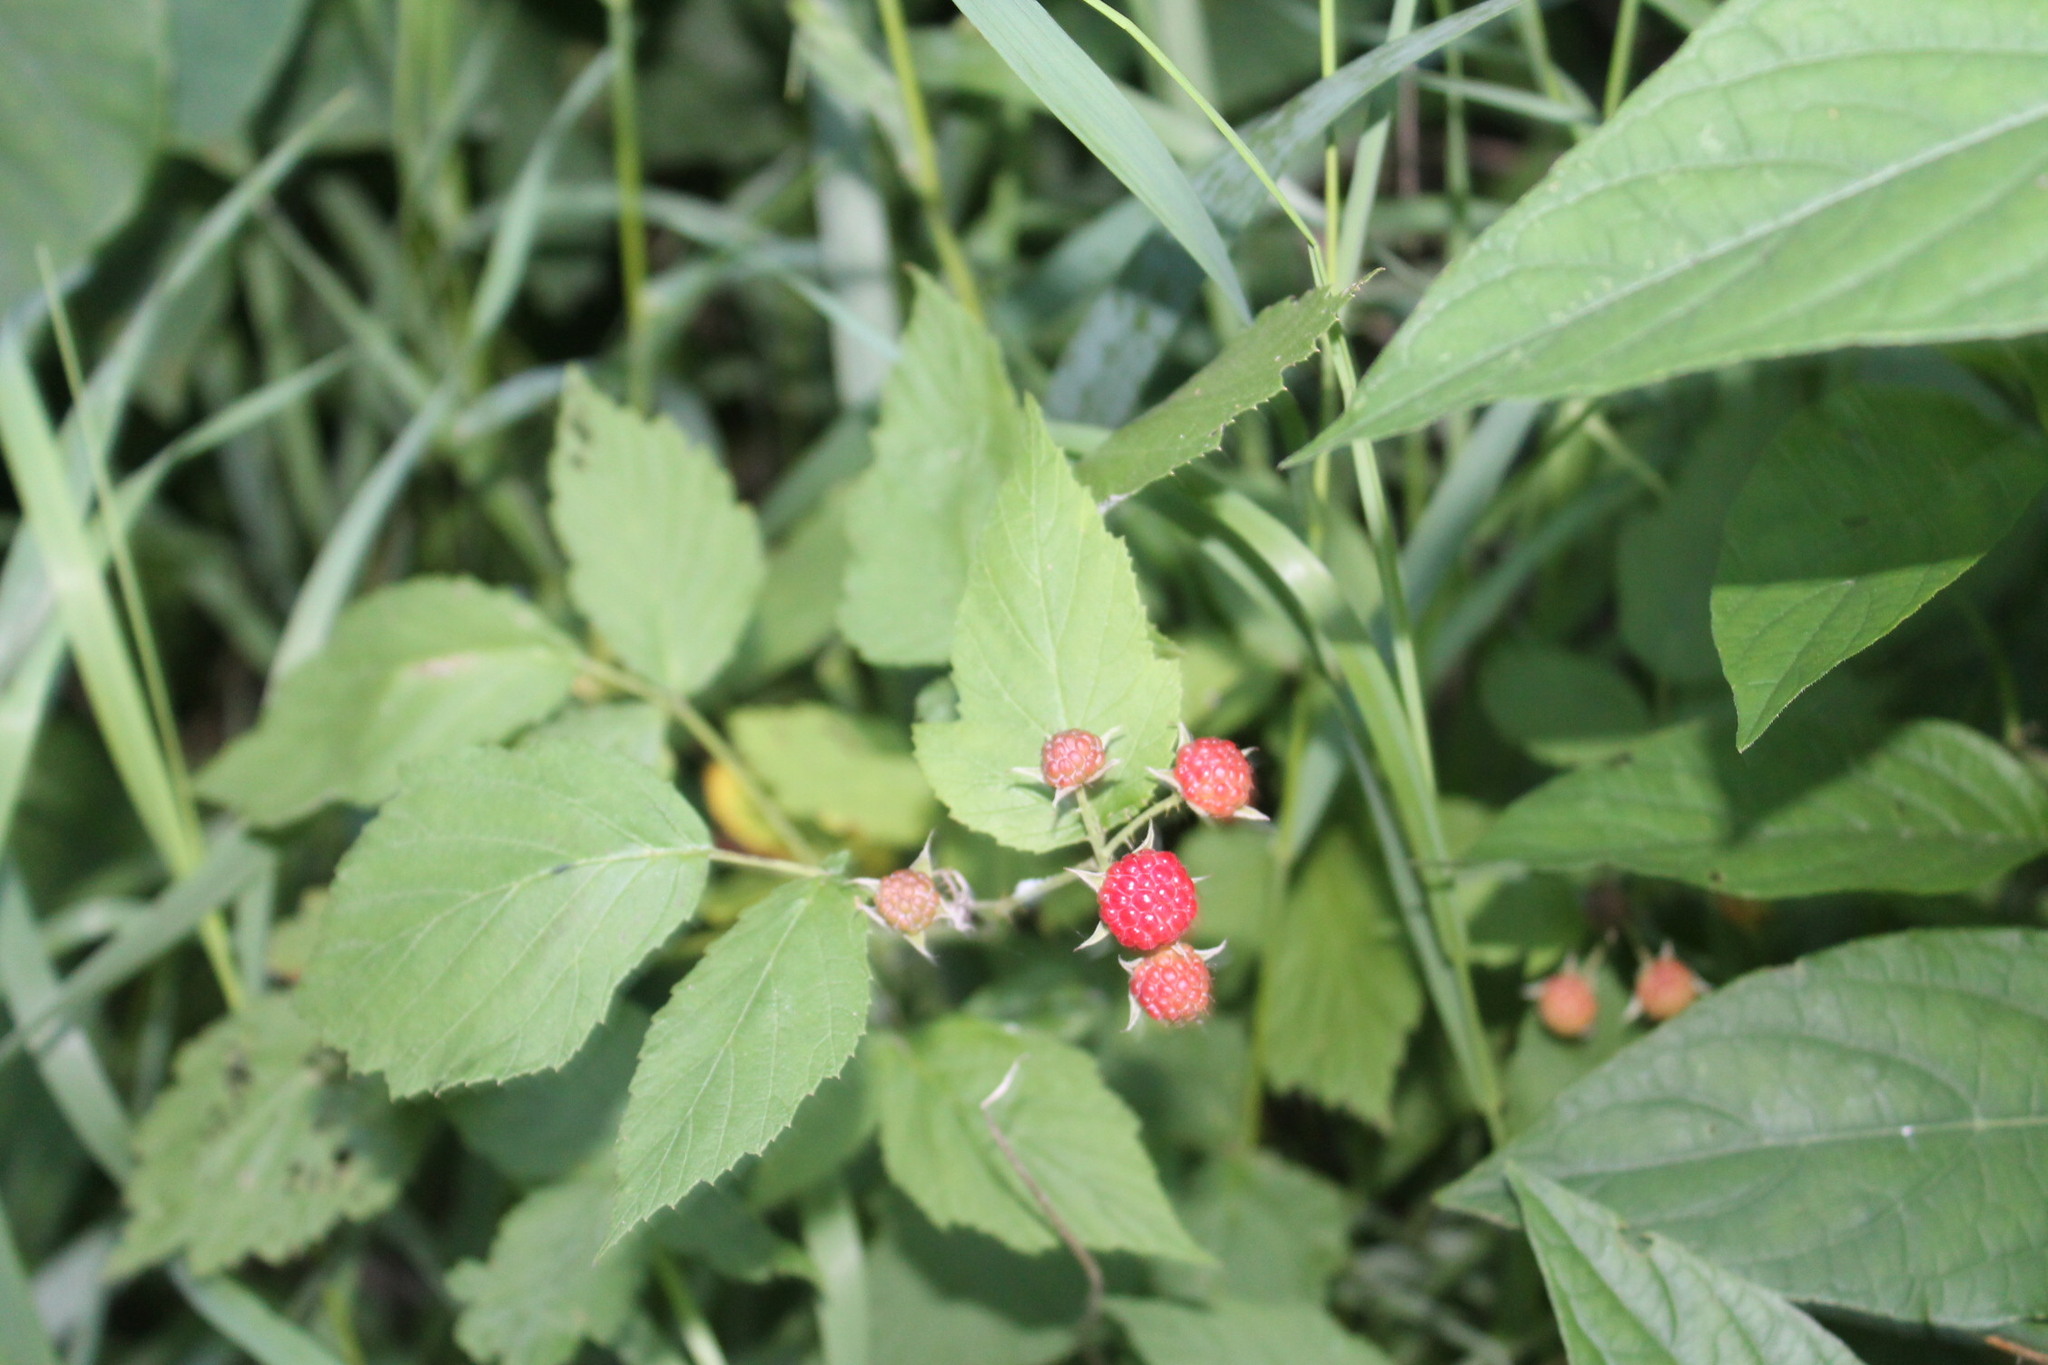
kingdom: Plantae
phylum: Tracheophyta
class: Magnoliopsida
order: Rosales
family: Rosaceae
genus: Rubus
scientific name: Rubus occidentalis
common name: Black raspberry
